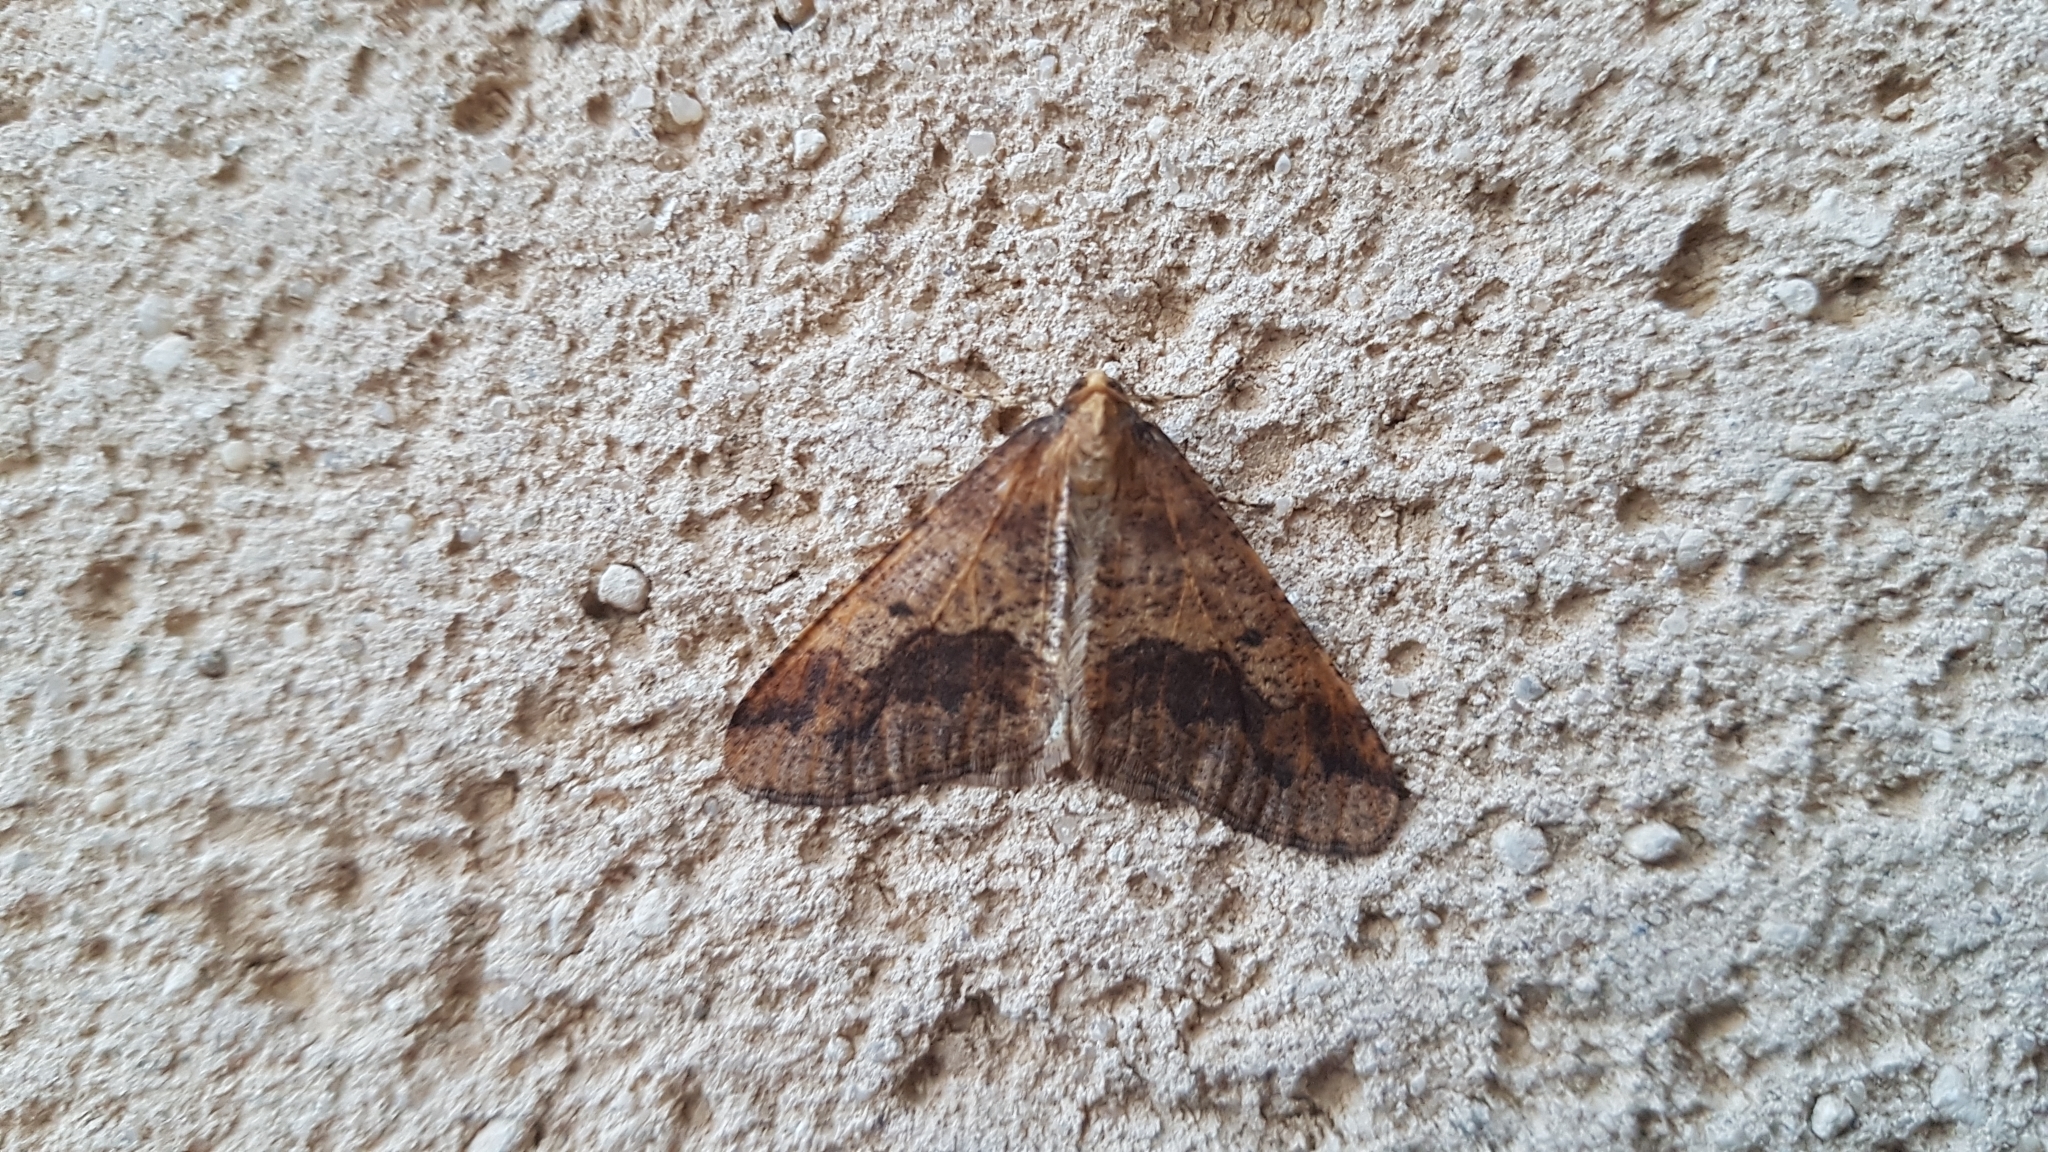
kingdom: Animalia
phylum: Arthropoda
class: Insecta
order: Lepidoptera
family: Geometridae
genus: Erannis
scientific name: Erannis defoliaria
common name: Mottled umber
